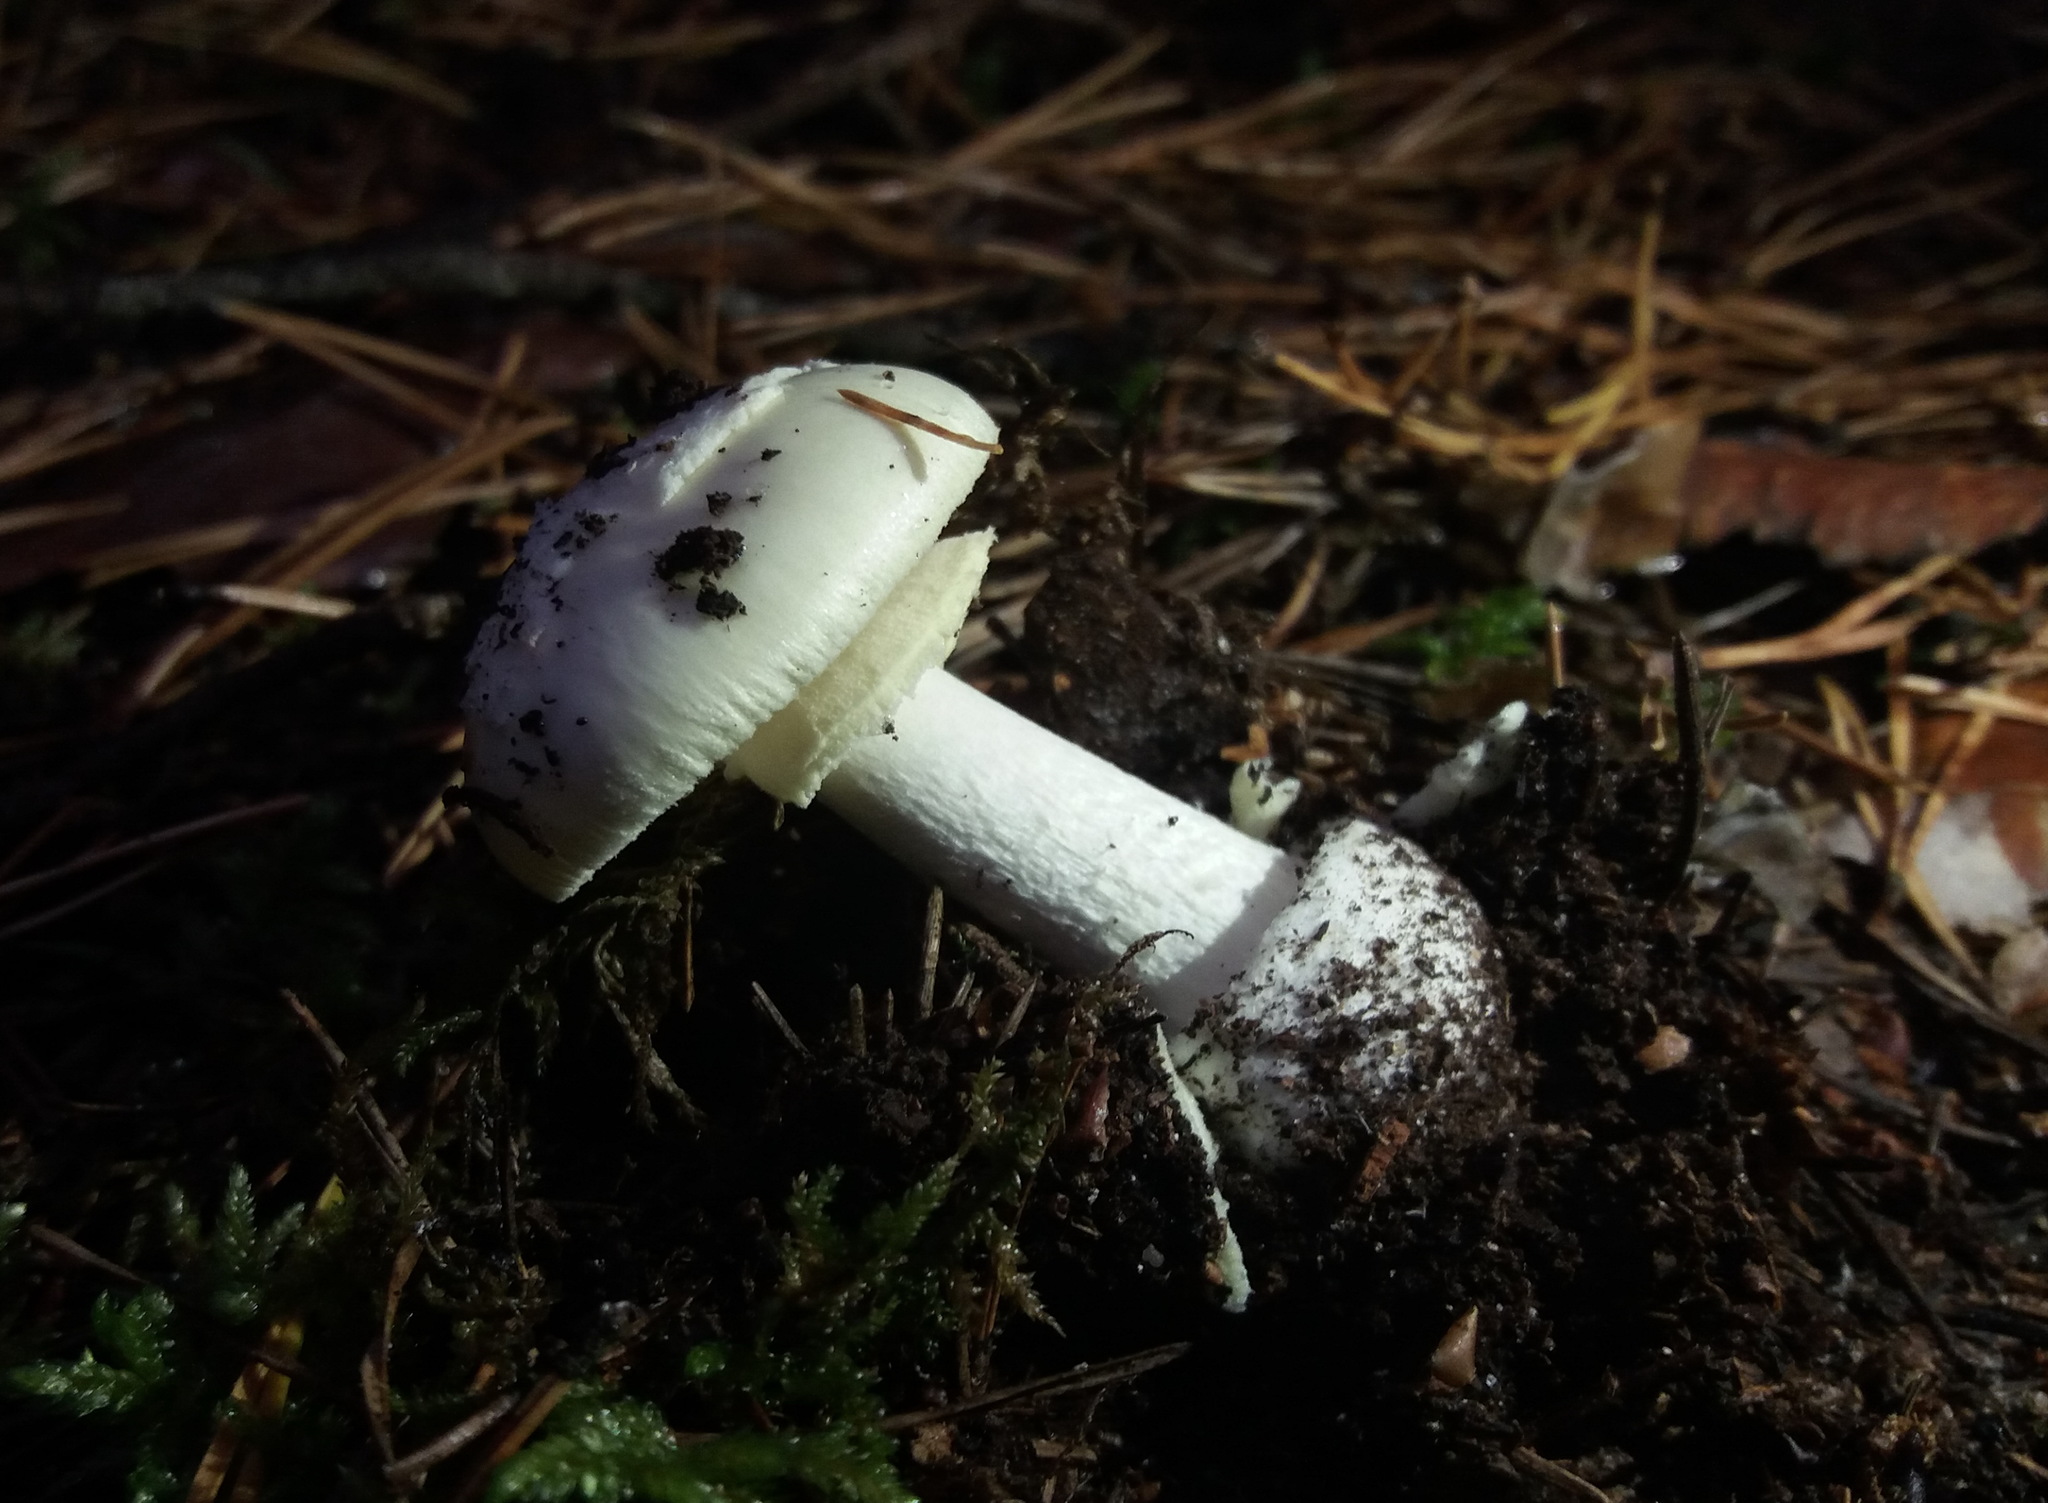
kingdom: Fungi
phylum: Basidiomycota
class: Agaricomycetes
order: Agaricales
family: Amanitaceae
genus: Amanita
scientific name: Amanita citrina
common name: False death-cap
